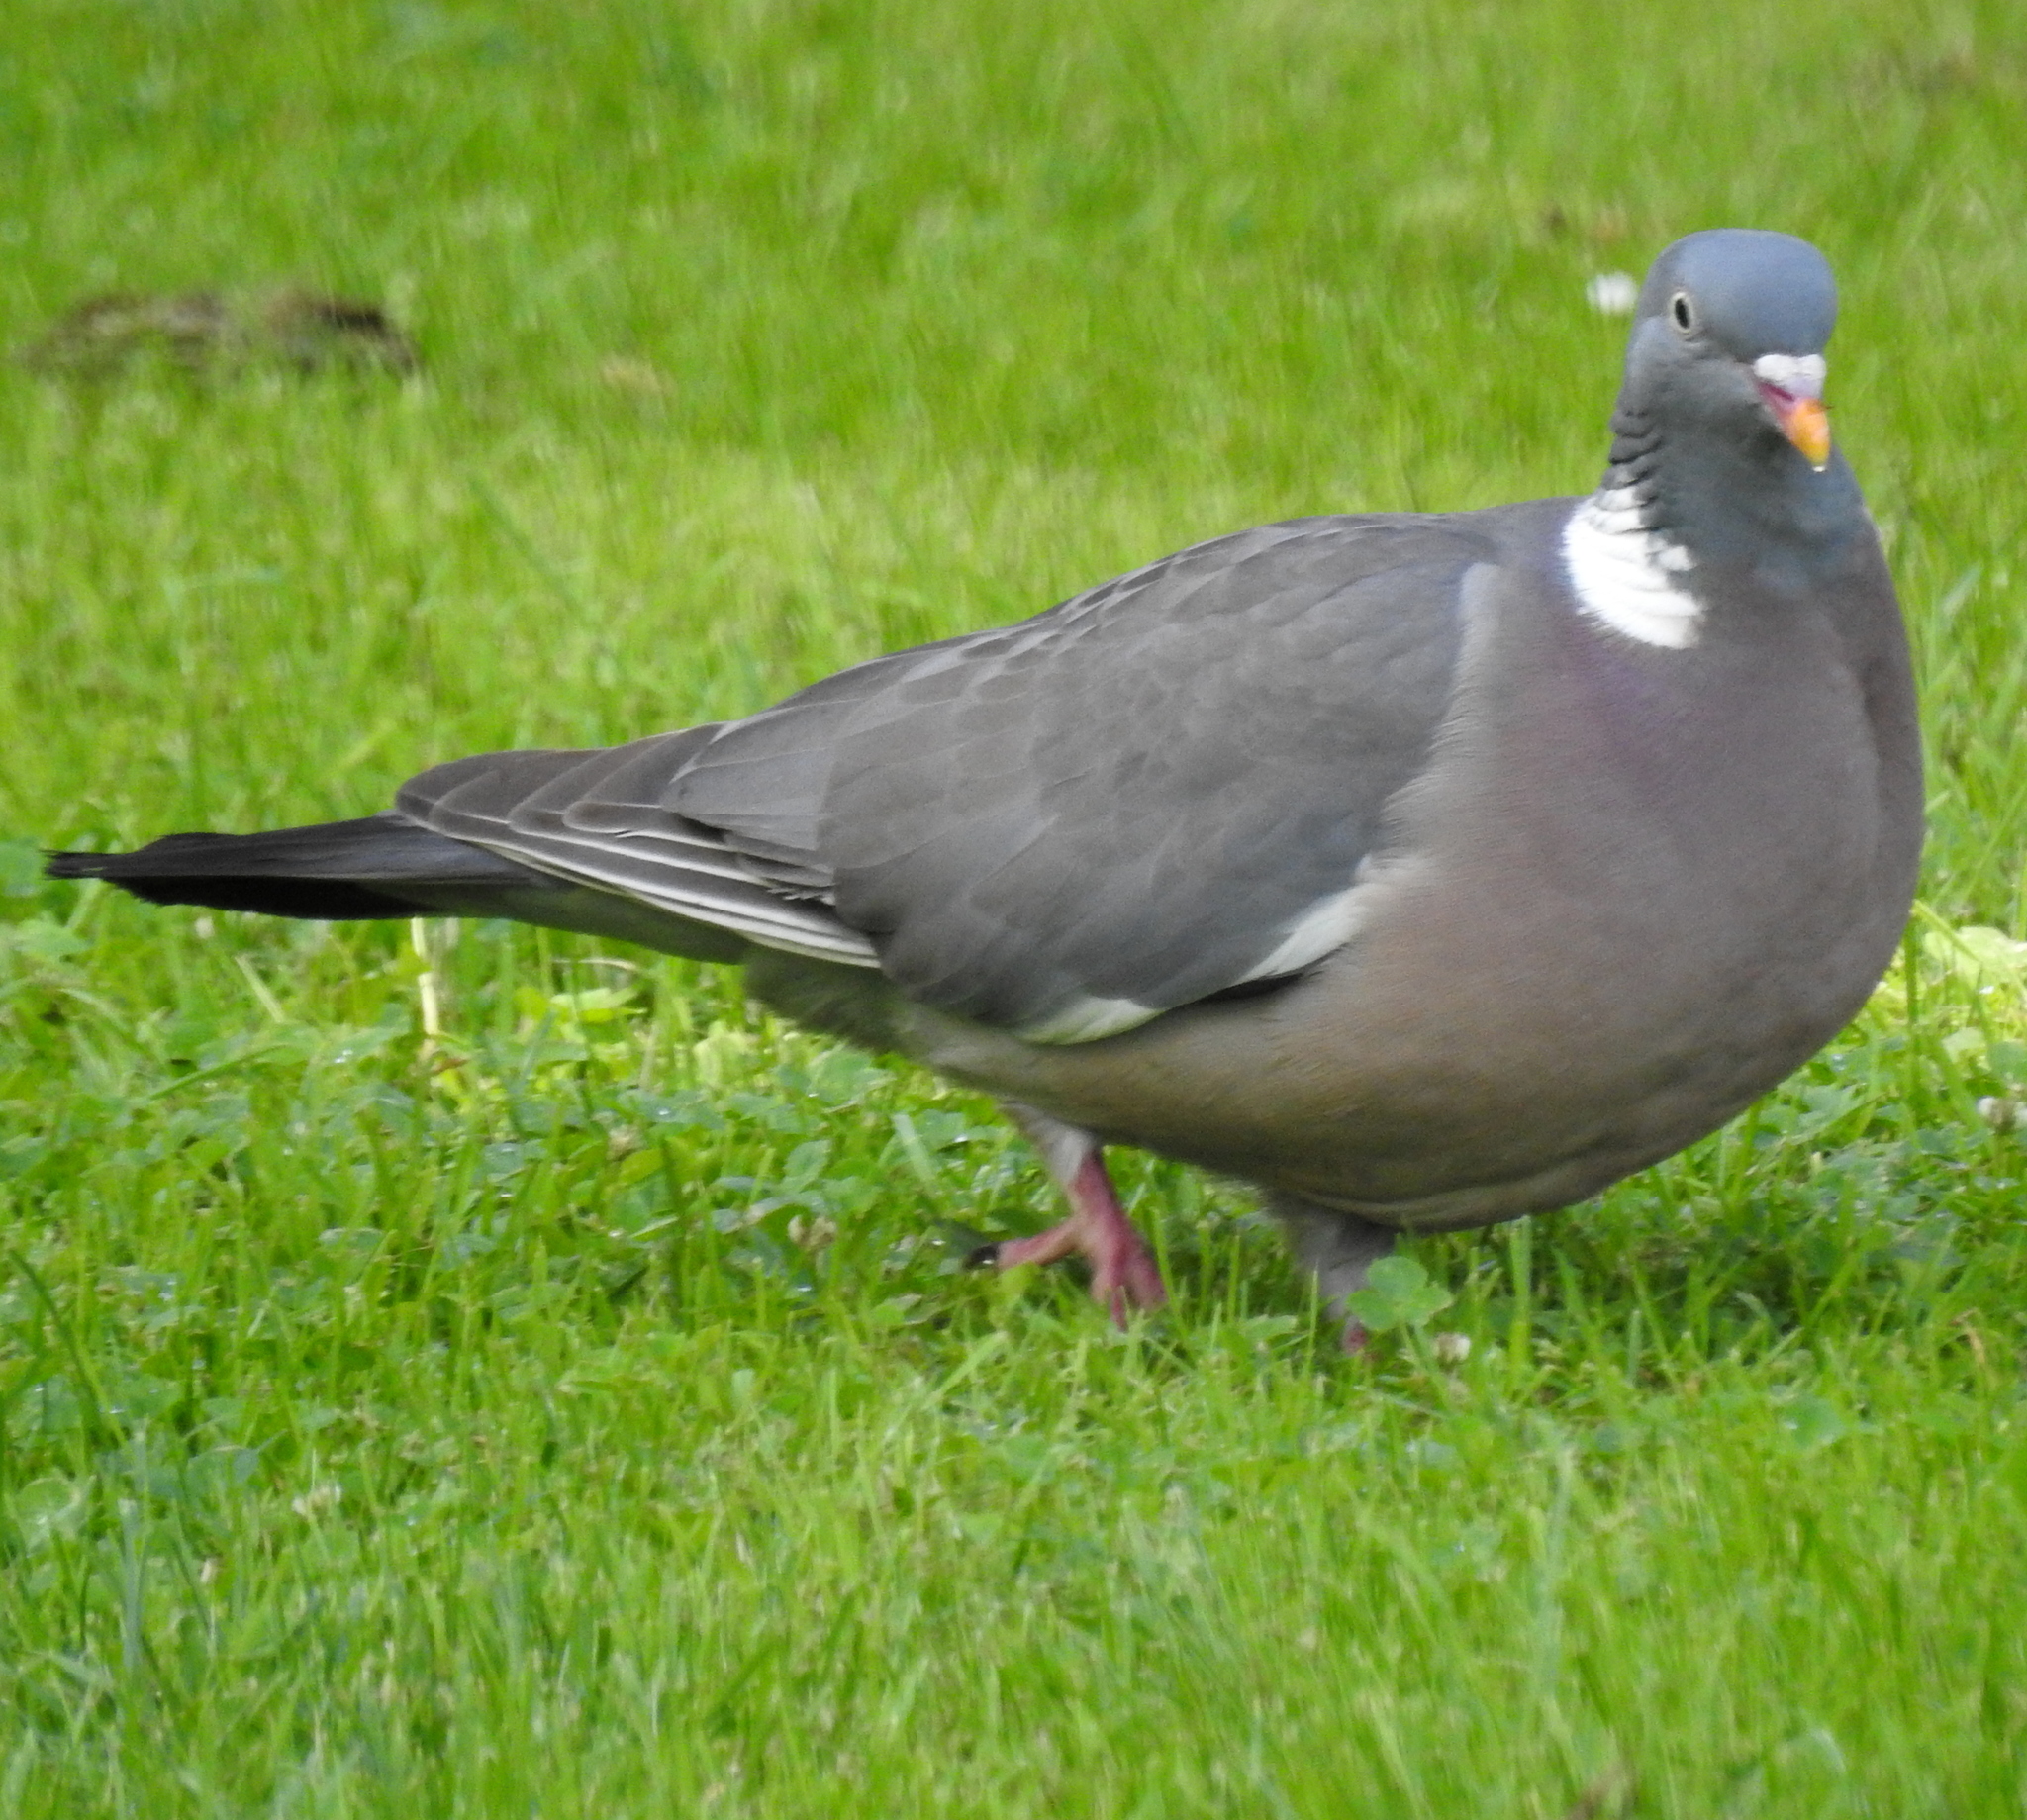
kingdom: Animalia
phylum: Chordata
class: Aves
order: Columbiformes
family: Columbidae
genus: Columba
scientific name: Columba palumbus
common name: Common wood pigeon
